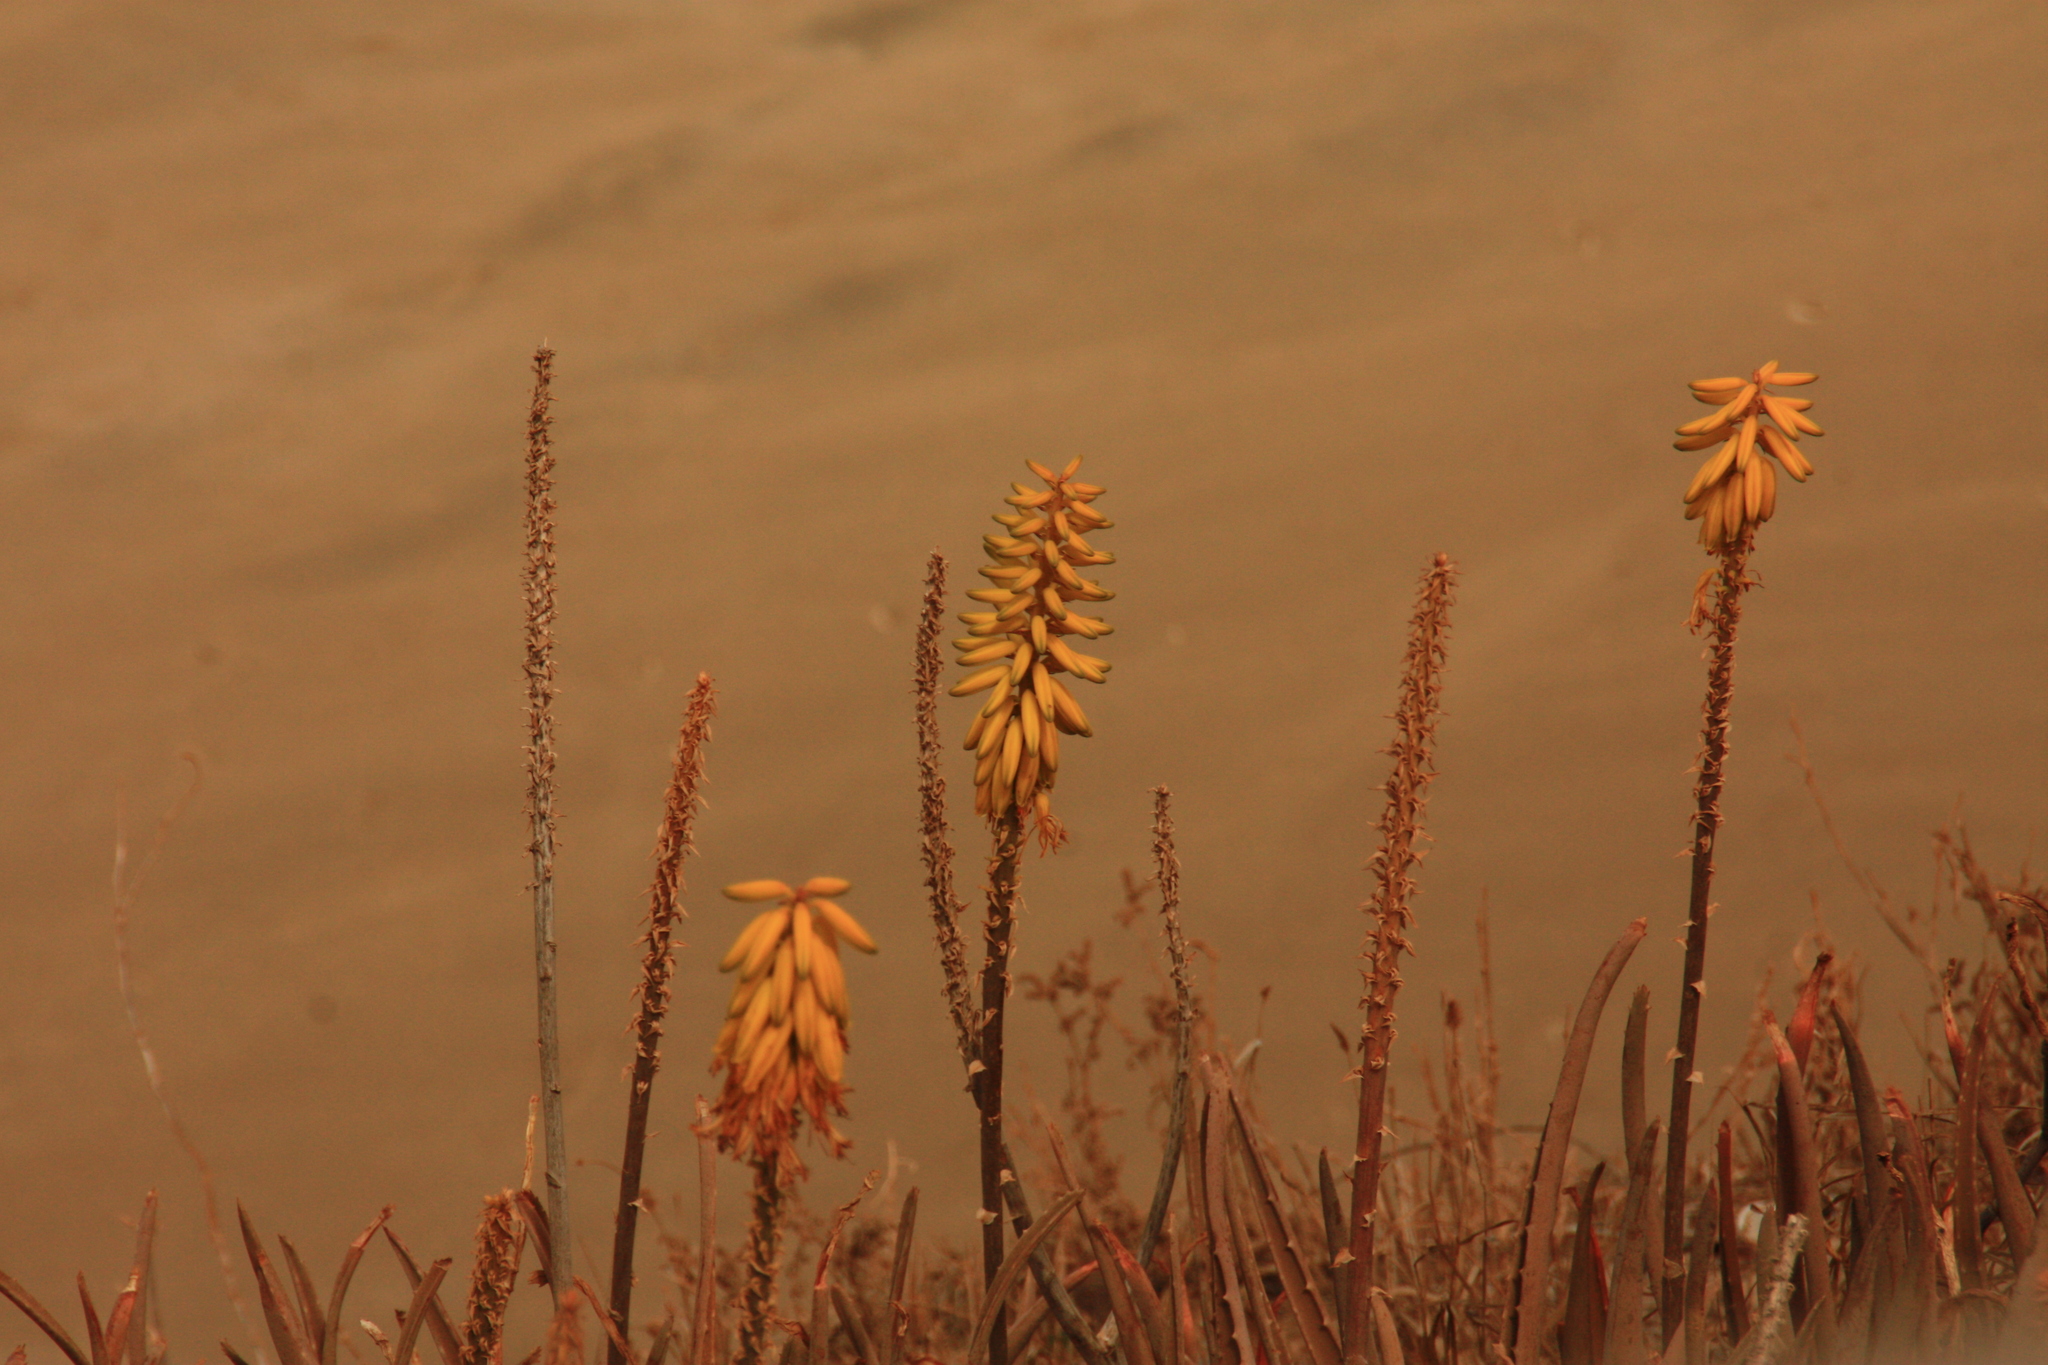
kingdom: Plantae
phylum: Tracheophyta
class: Liliopsida
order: Asparagales
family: Asphodelaceae
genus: Aloe
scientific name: Aloe vera
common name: Barbados aloe
